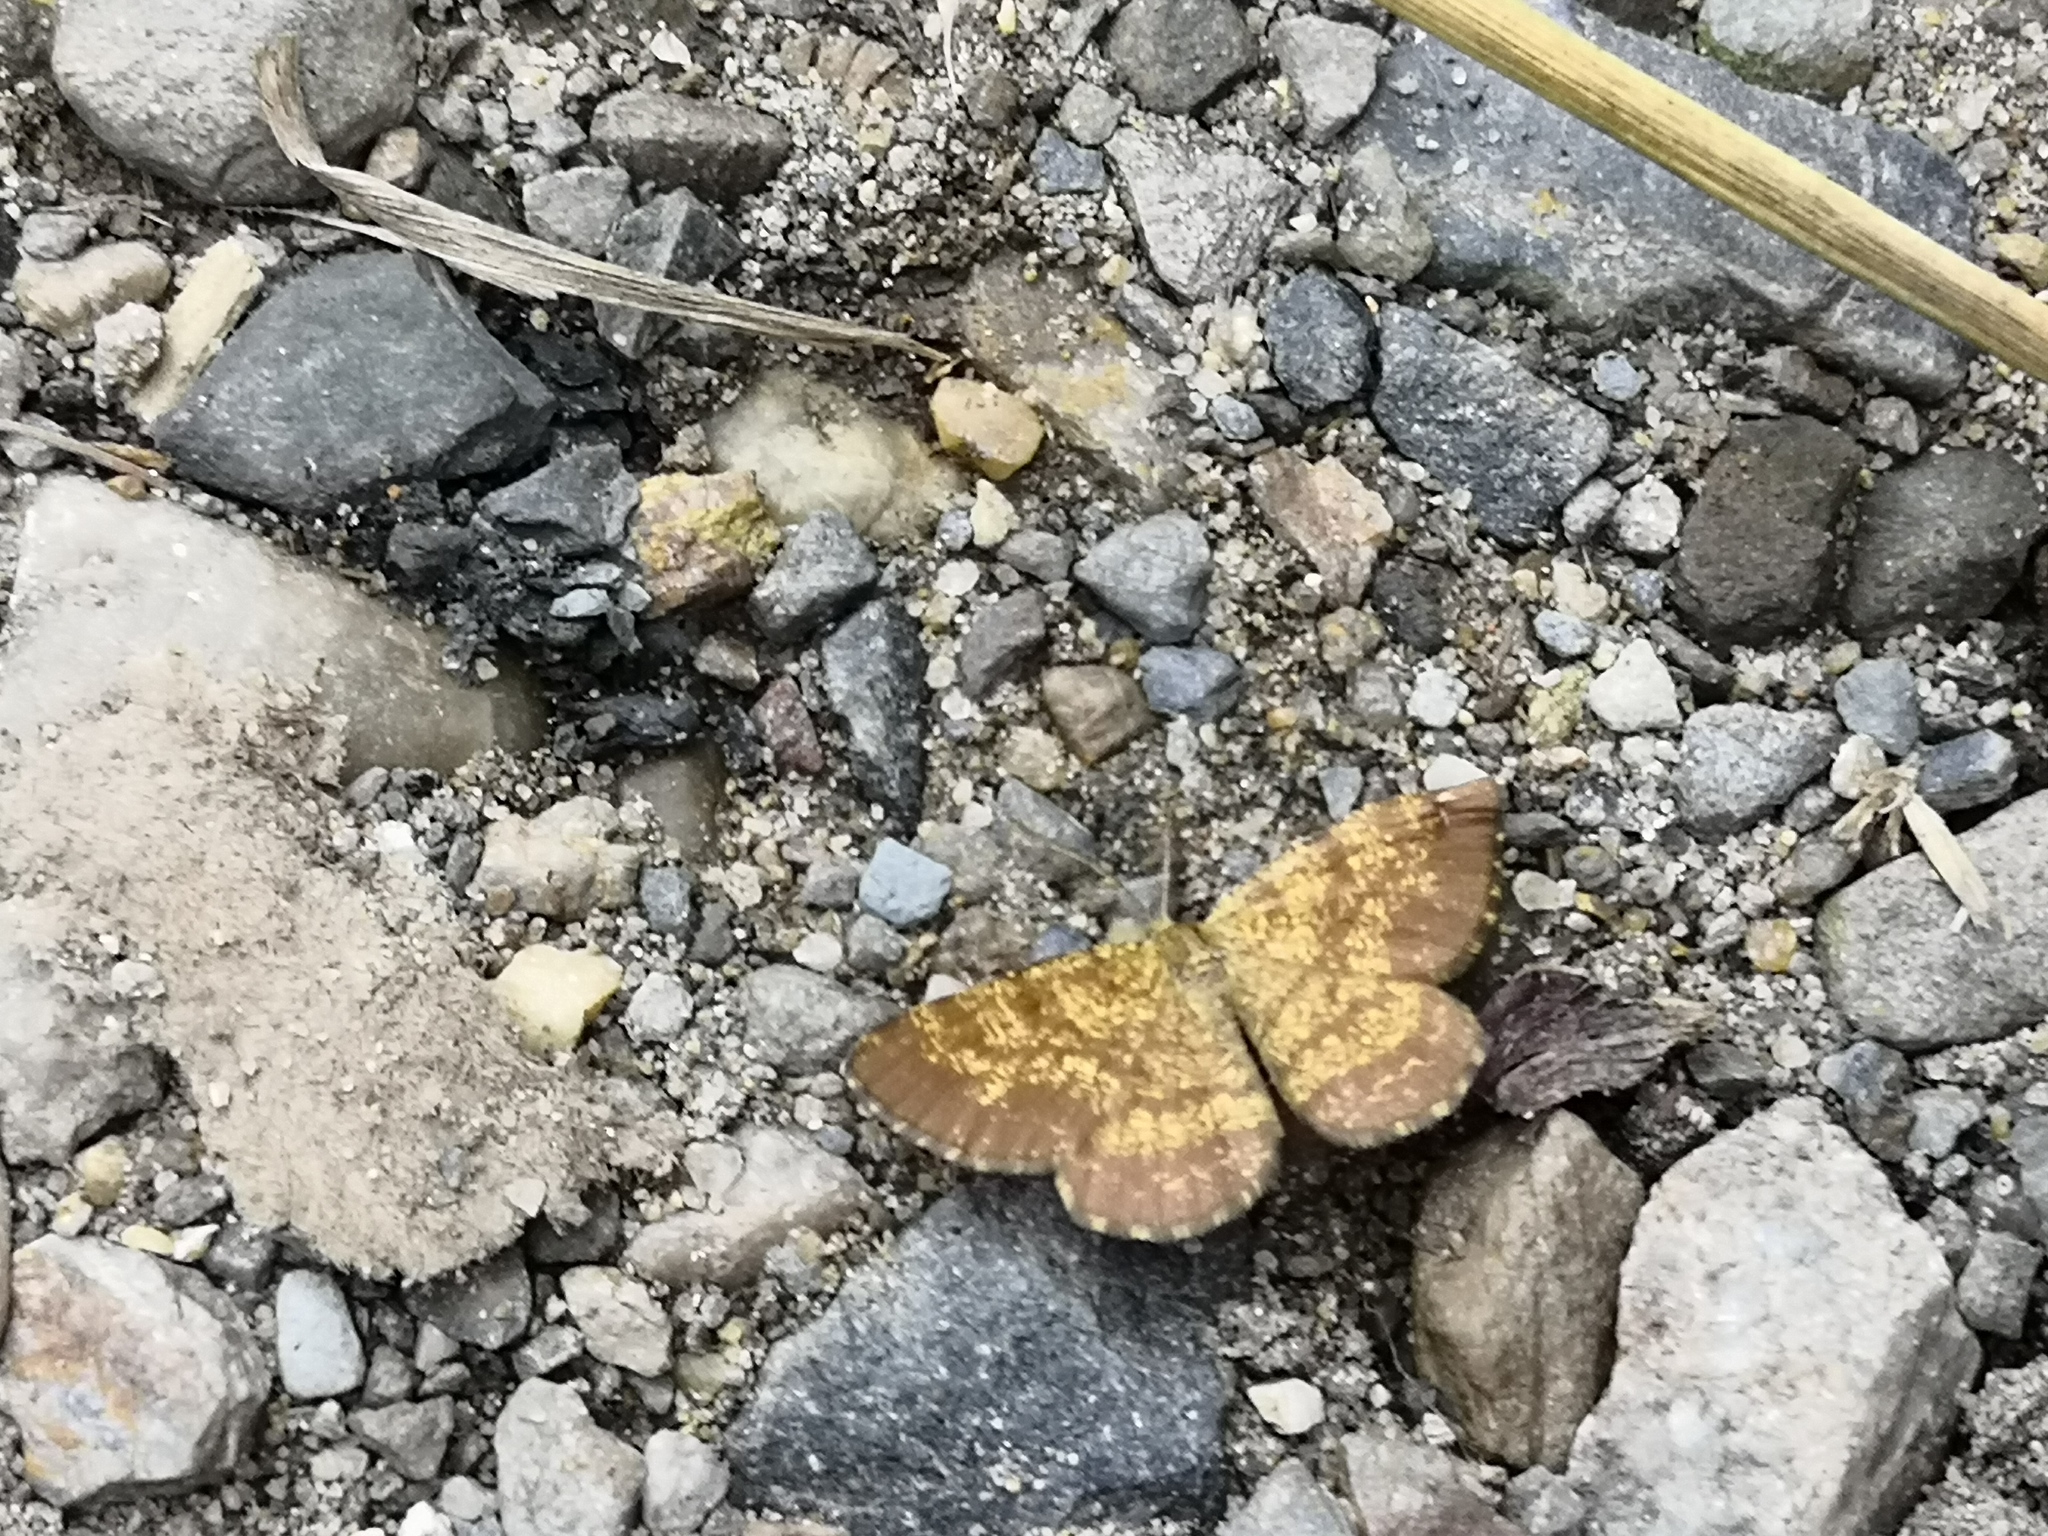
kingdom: Animalia
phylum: Arthropoda
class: Insecta
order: Lepidoptera
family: Geometridae
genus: Ematurga
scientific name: Ematurga atomaria
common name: Common heath
